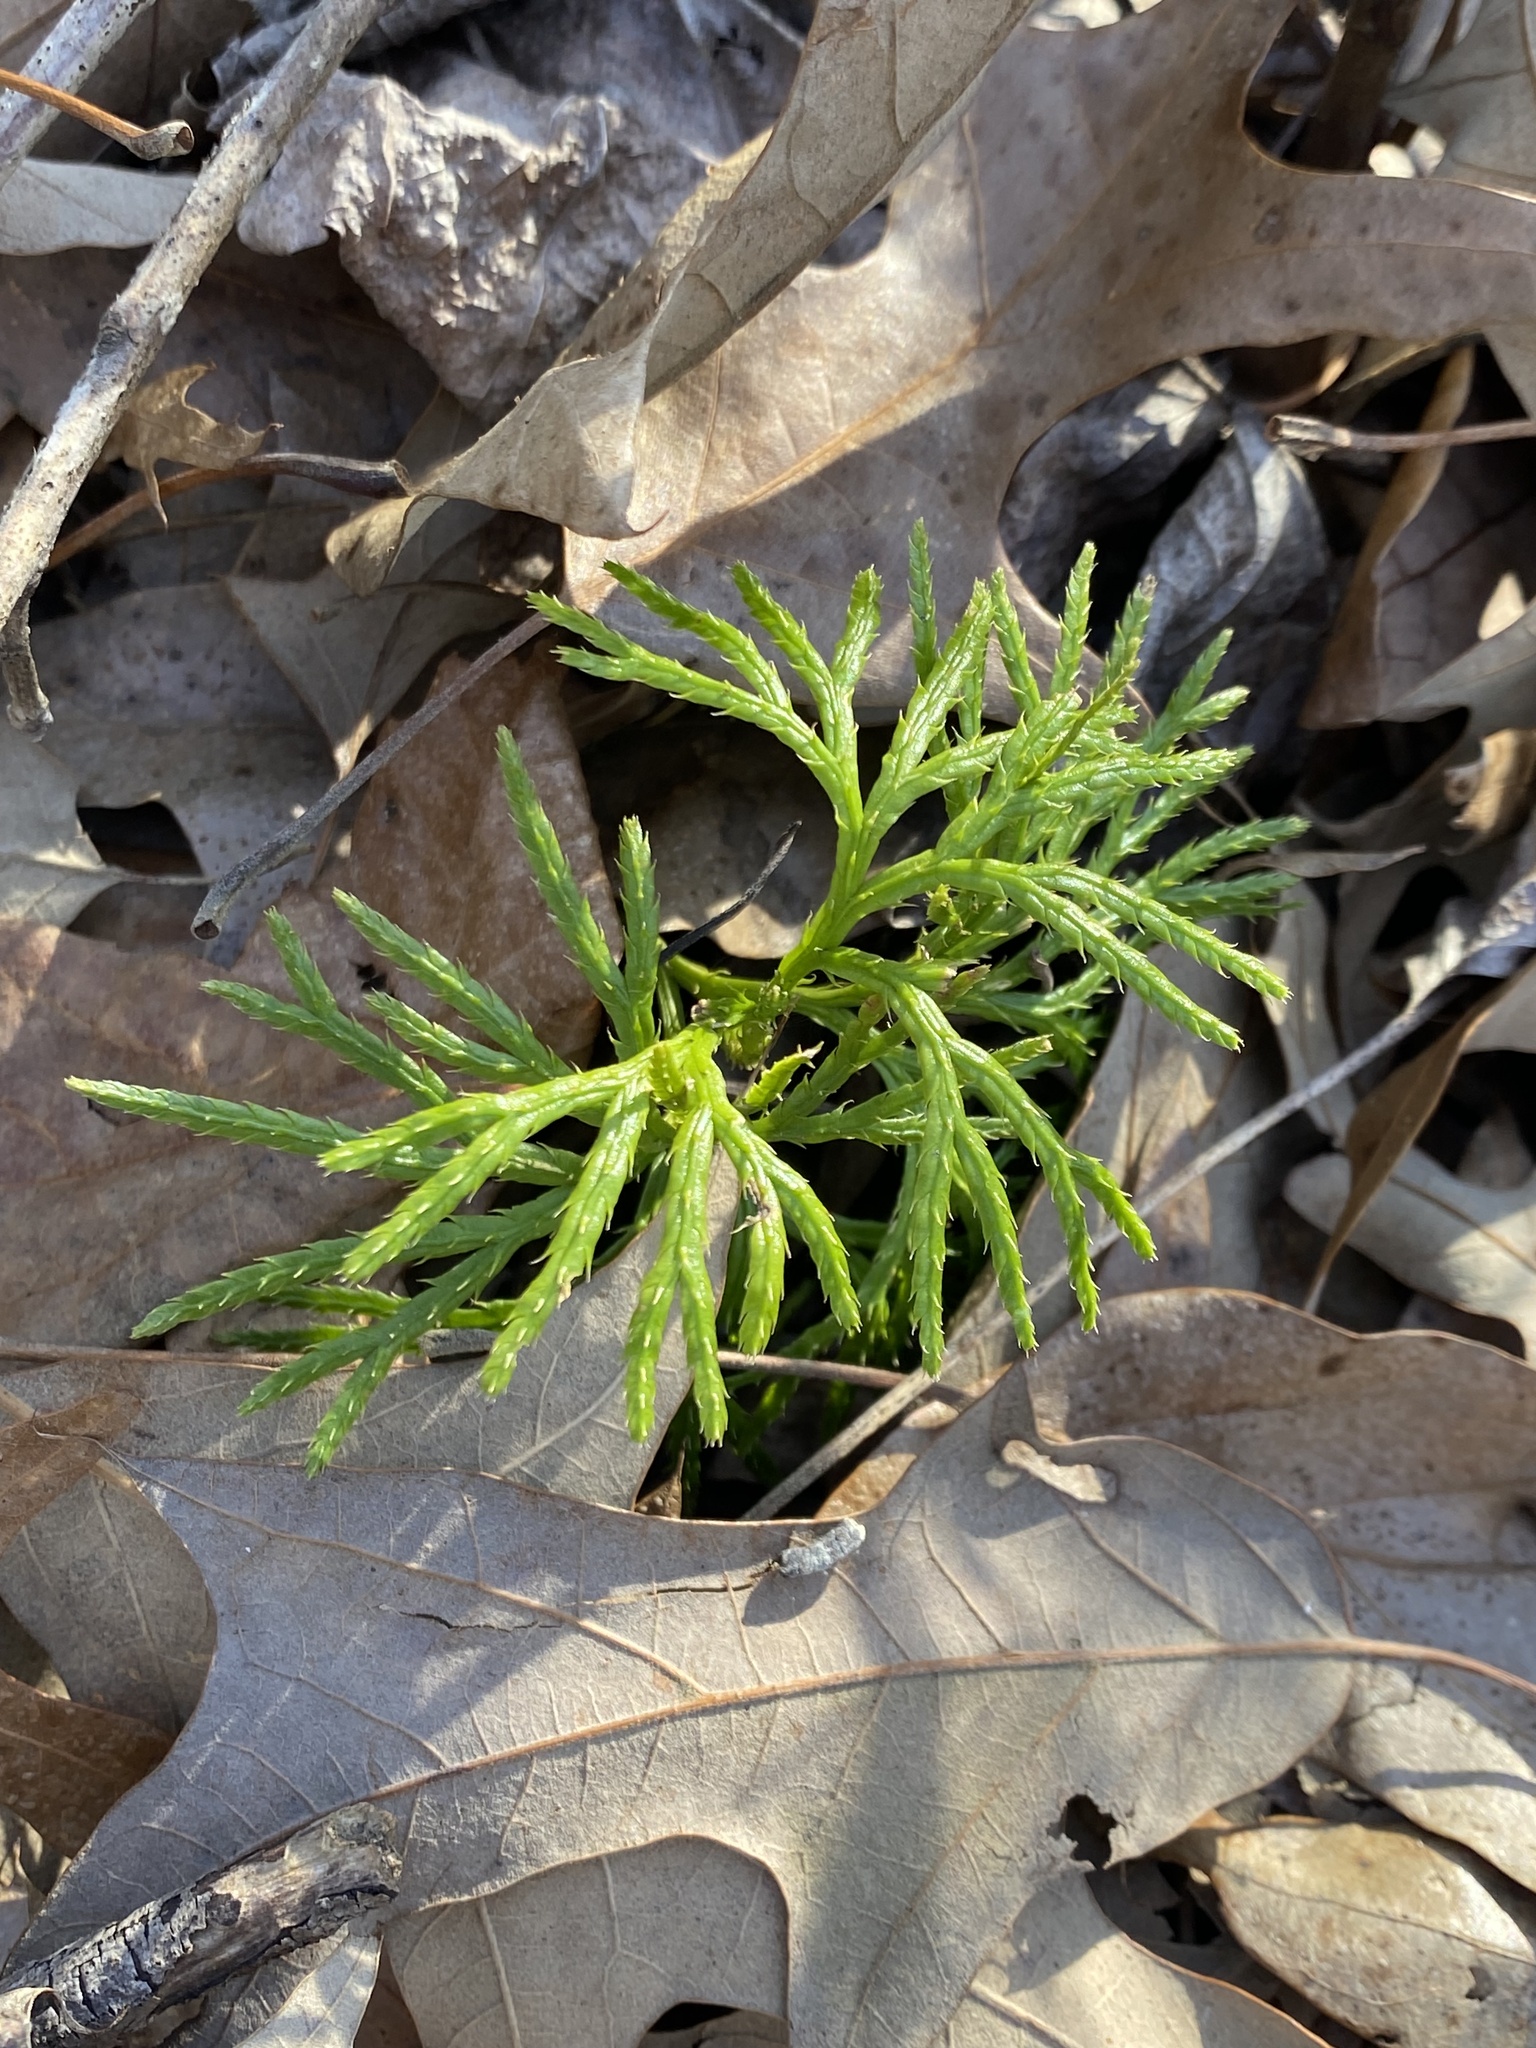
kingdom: Plantae
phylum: Tracheophyta
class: Lycopodiopsida
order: Lycopodiales
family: Lycopodiaceae
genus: Diphasiastrum
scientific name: Diphasiastrum digitatum
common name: Southern running-pine
